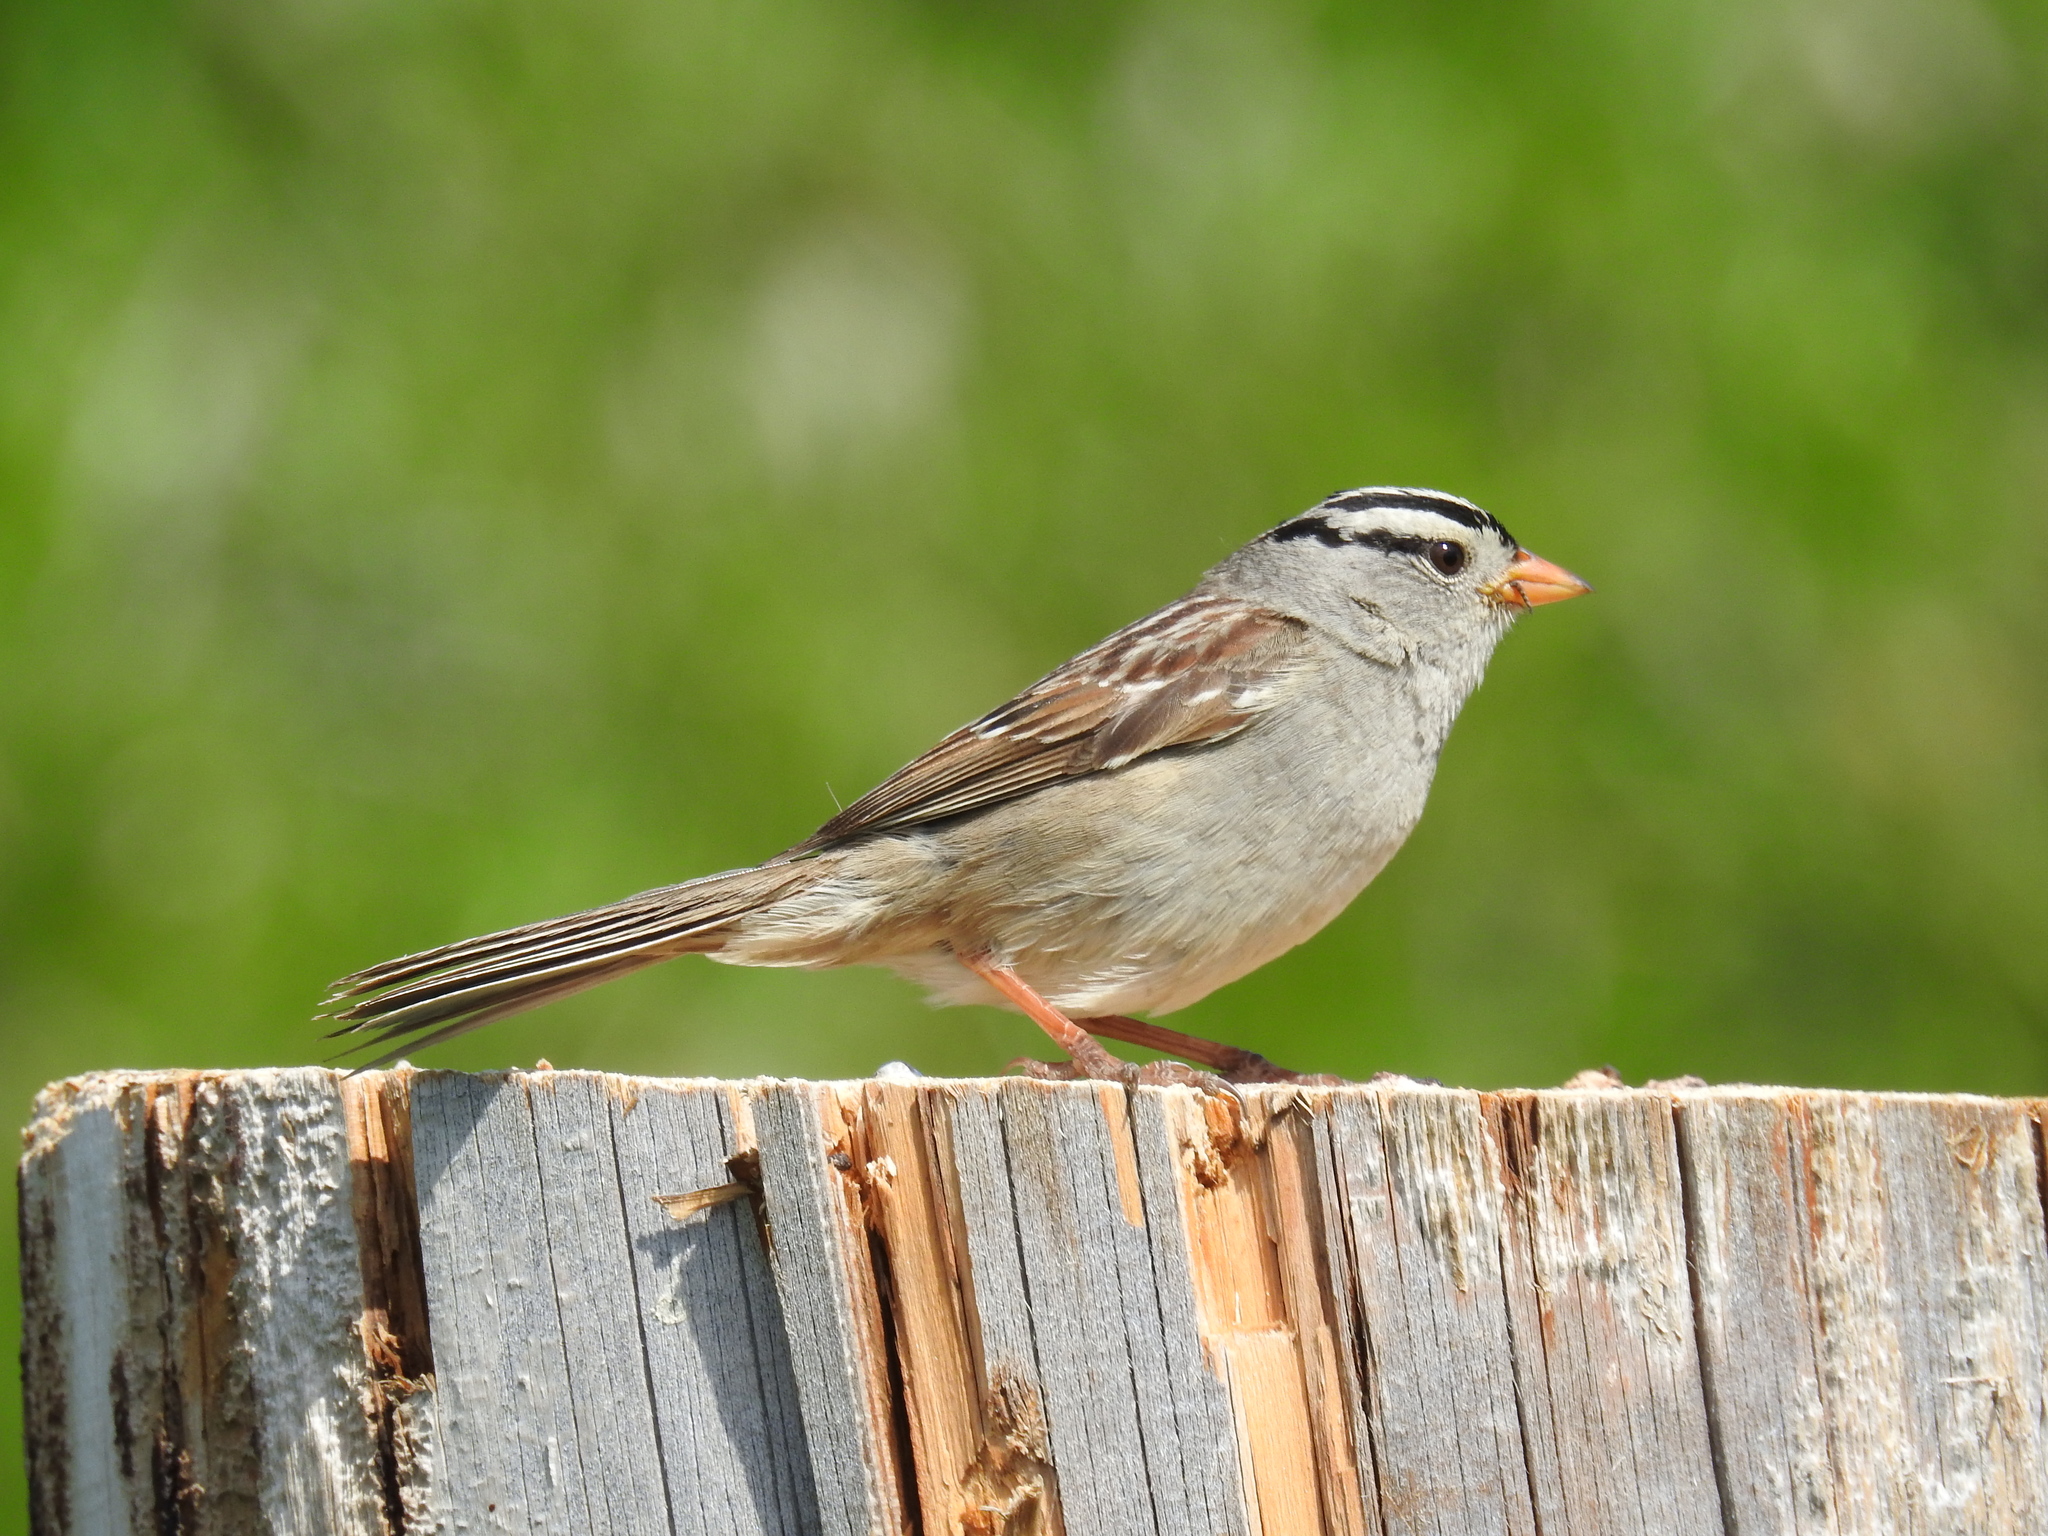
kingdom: Animalia
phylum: Chordata
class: Aves
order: Passeriformes
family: Passerellidae
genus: Zonotrichia
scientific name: Zonotrichia leucophrys
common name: White-crowned sparrow
